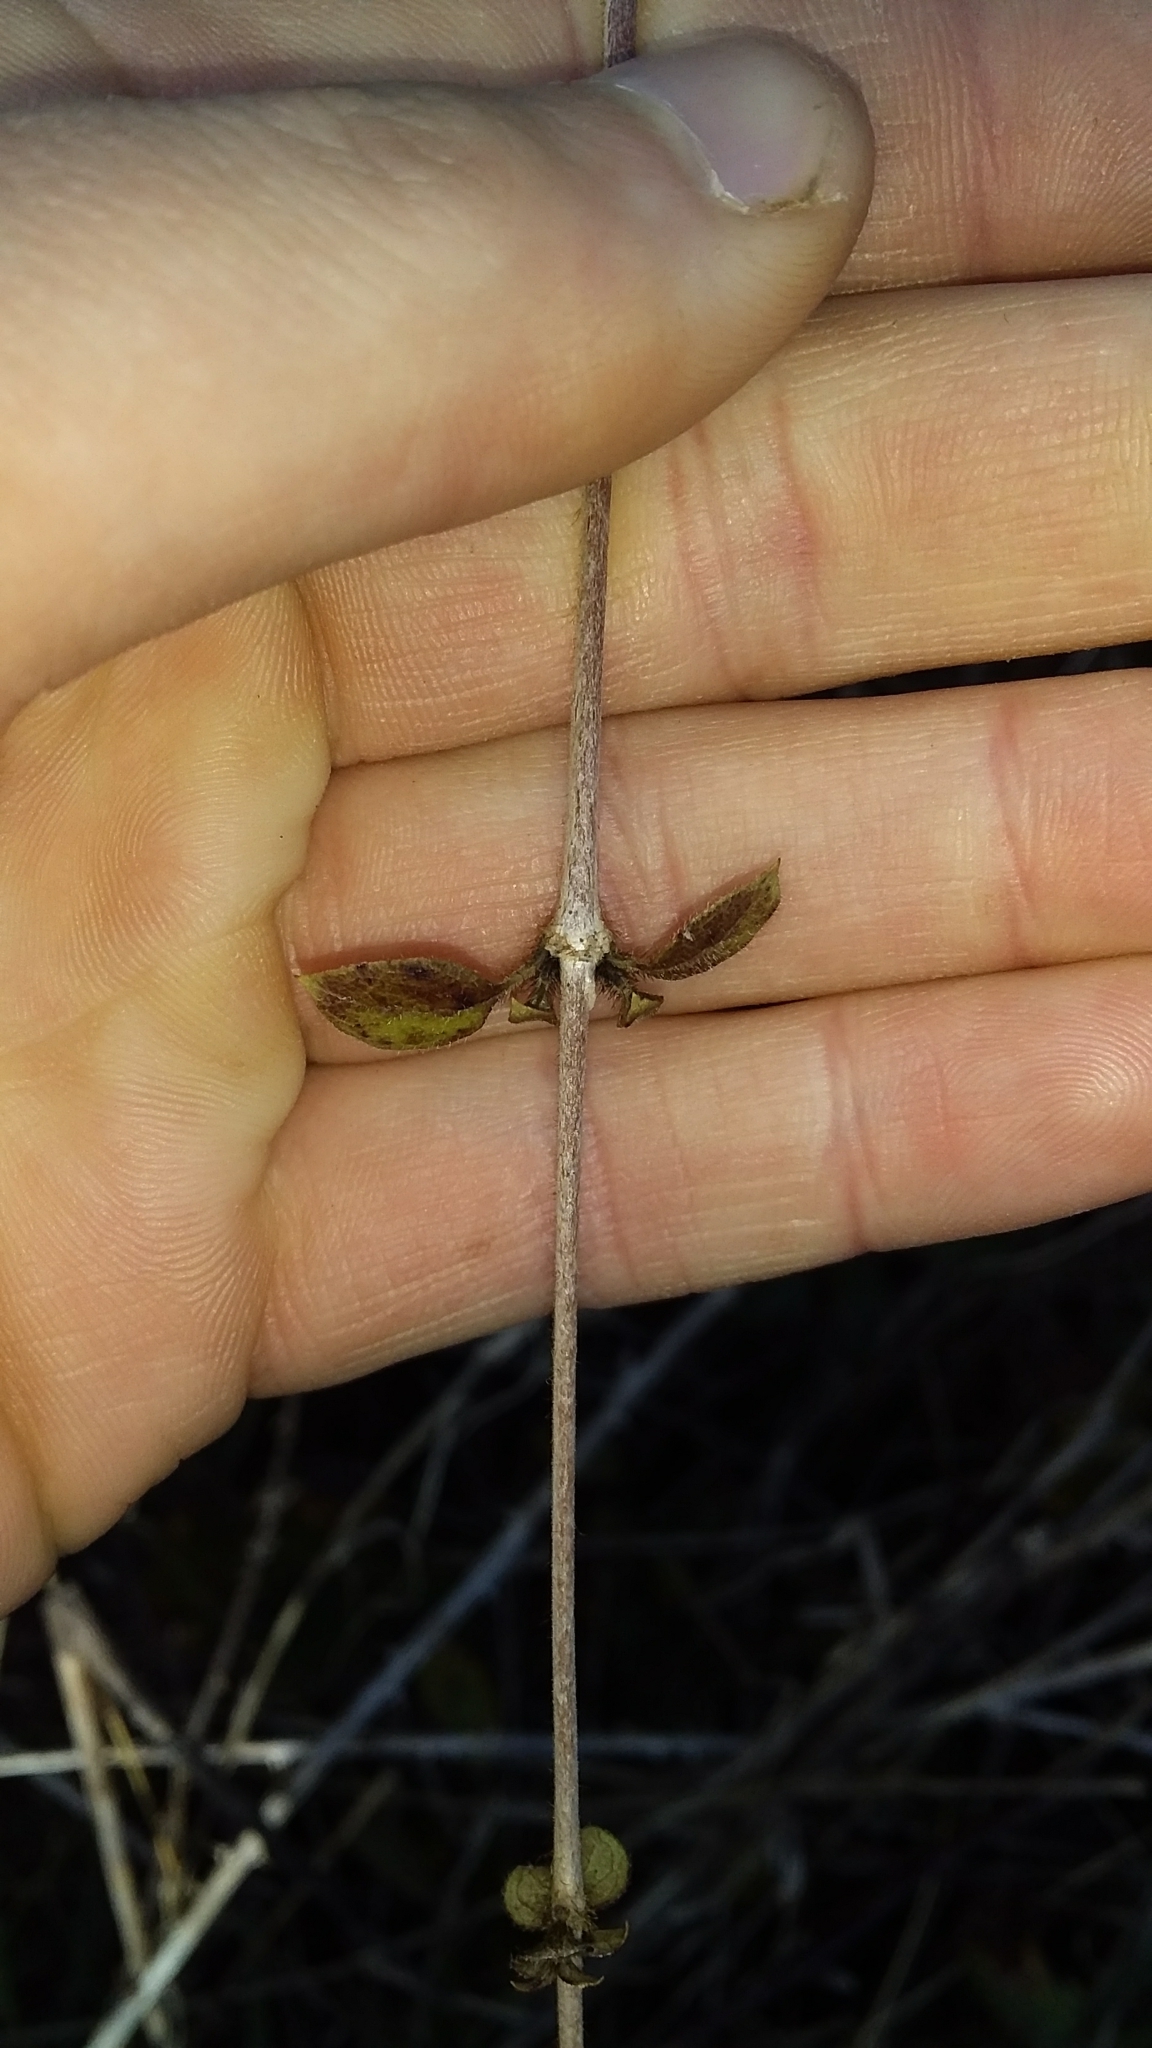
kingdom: Plantae
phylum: Tracheophyta
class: Magnoliopsida
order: Gentianales
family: Rubiaceae
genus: Coprosma
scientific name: Coprosma rotundifolia
